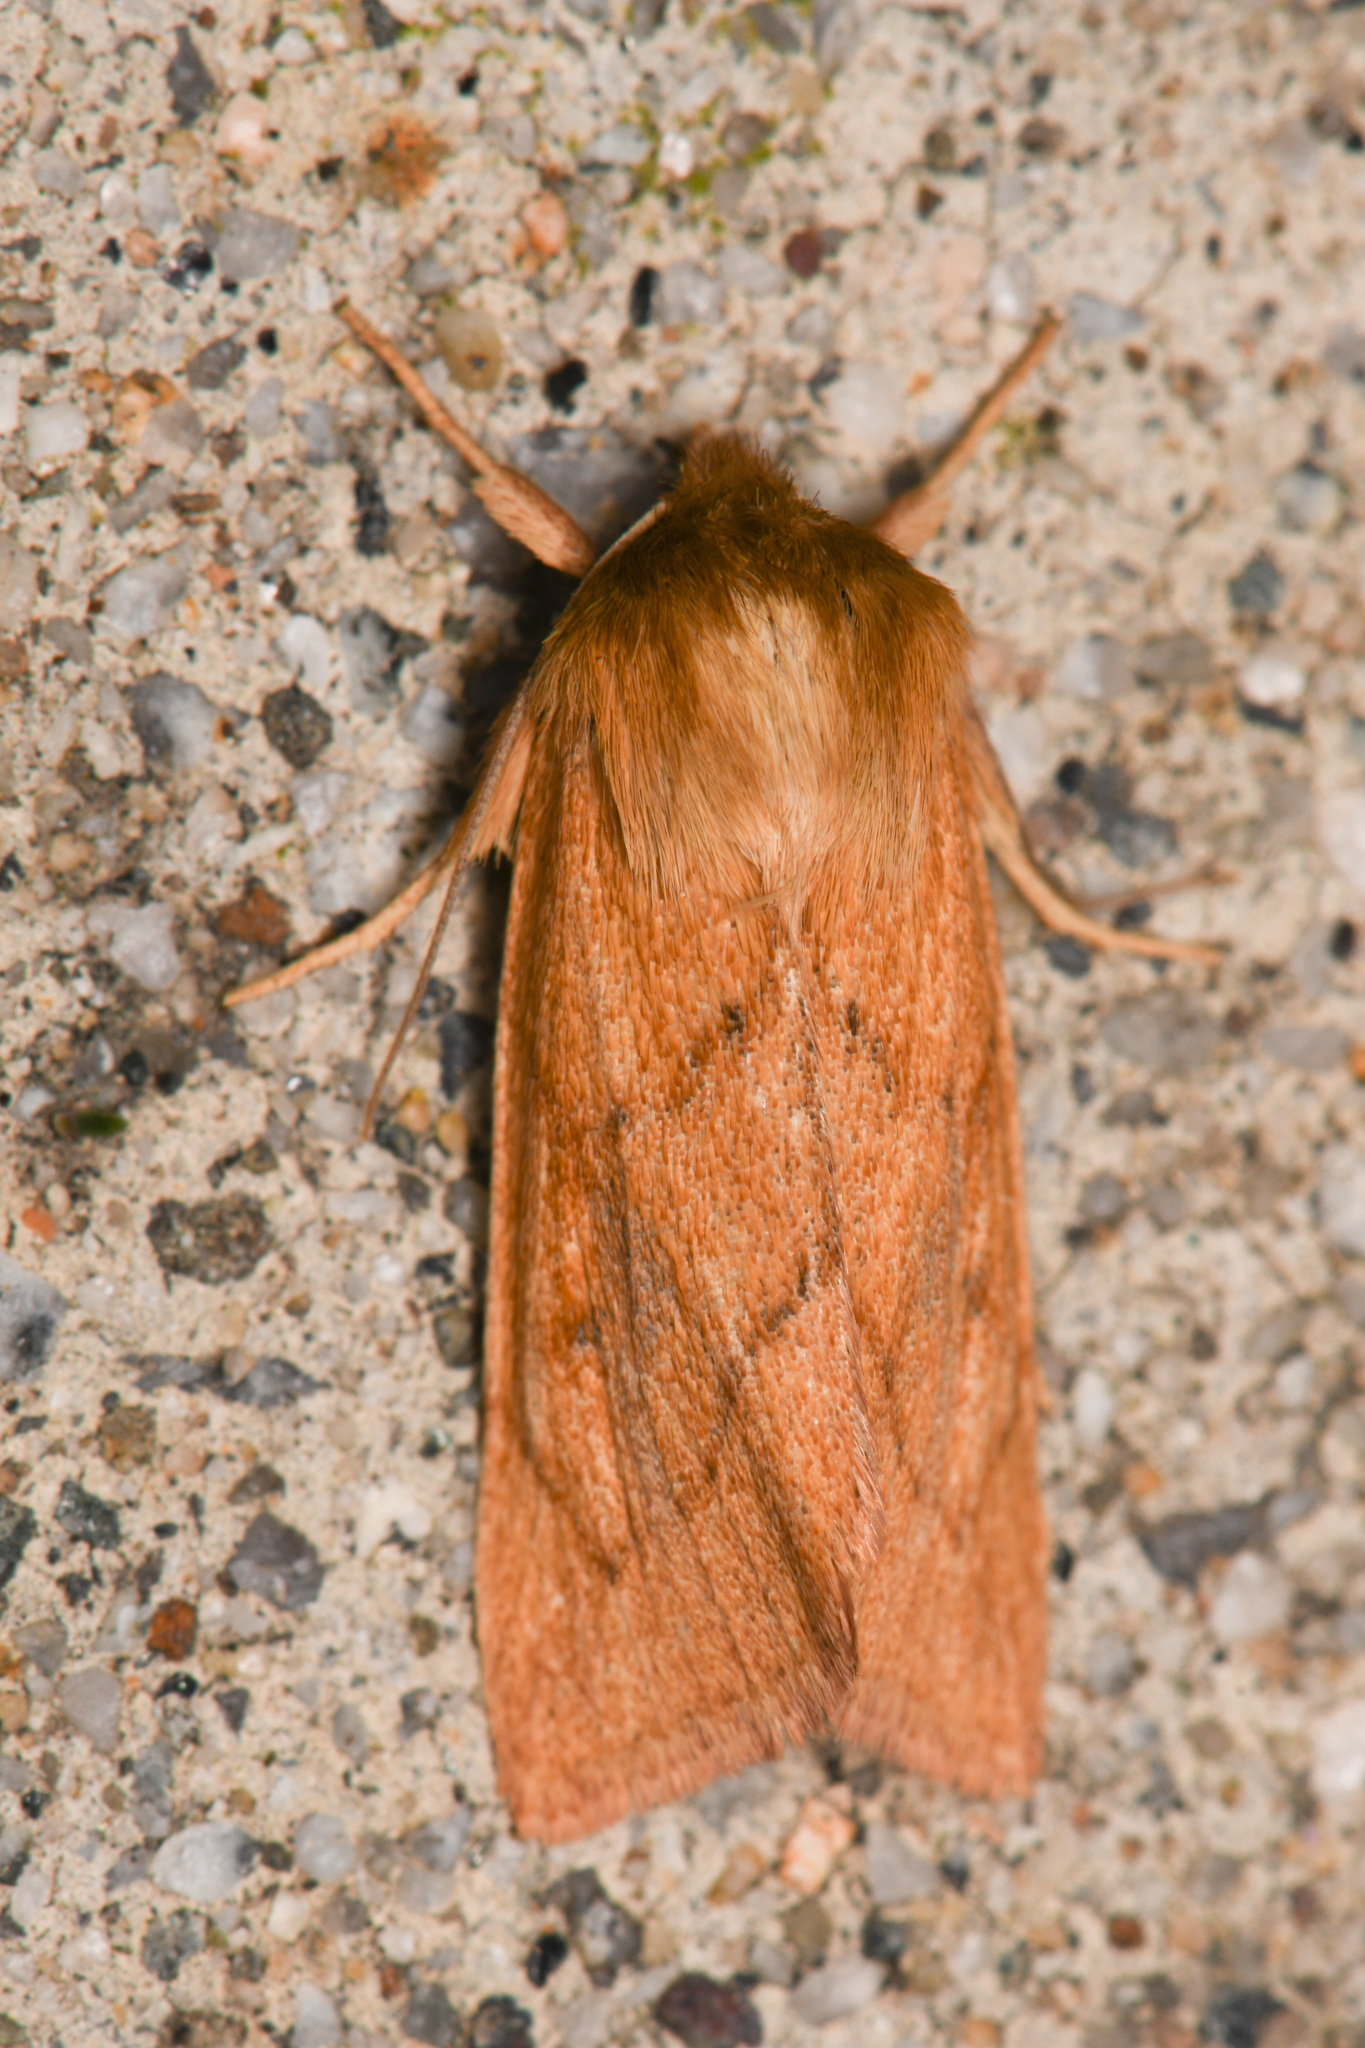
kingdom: Animalia
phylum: Arthropoda
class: Insecta
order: Lepidoptera
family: Noctuidae
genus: Zosteropoda
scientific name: Zosteropoda hirtipes
